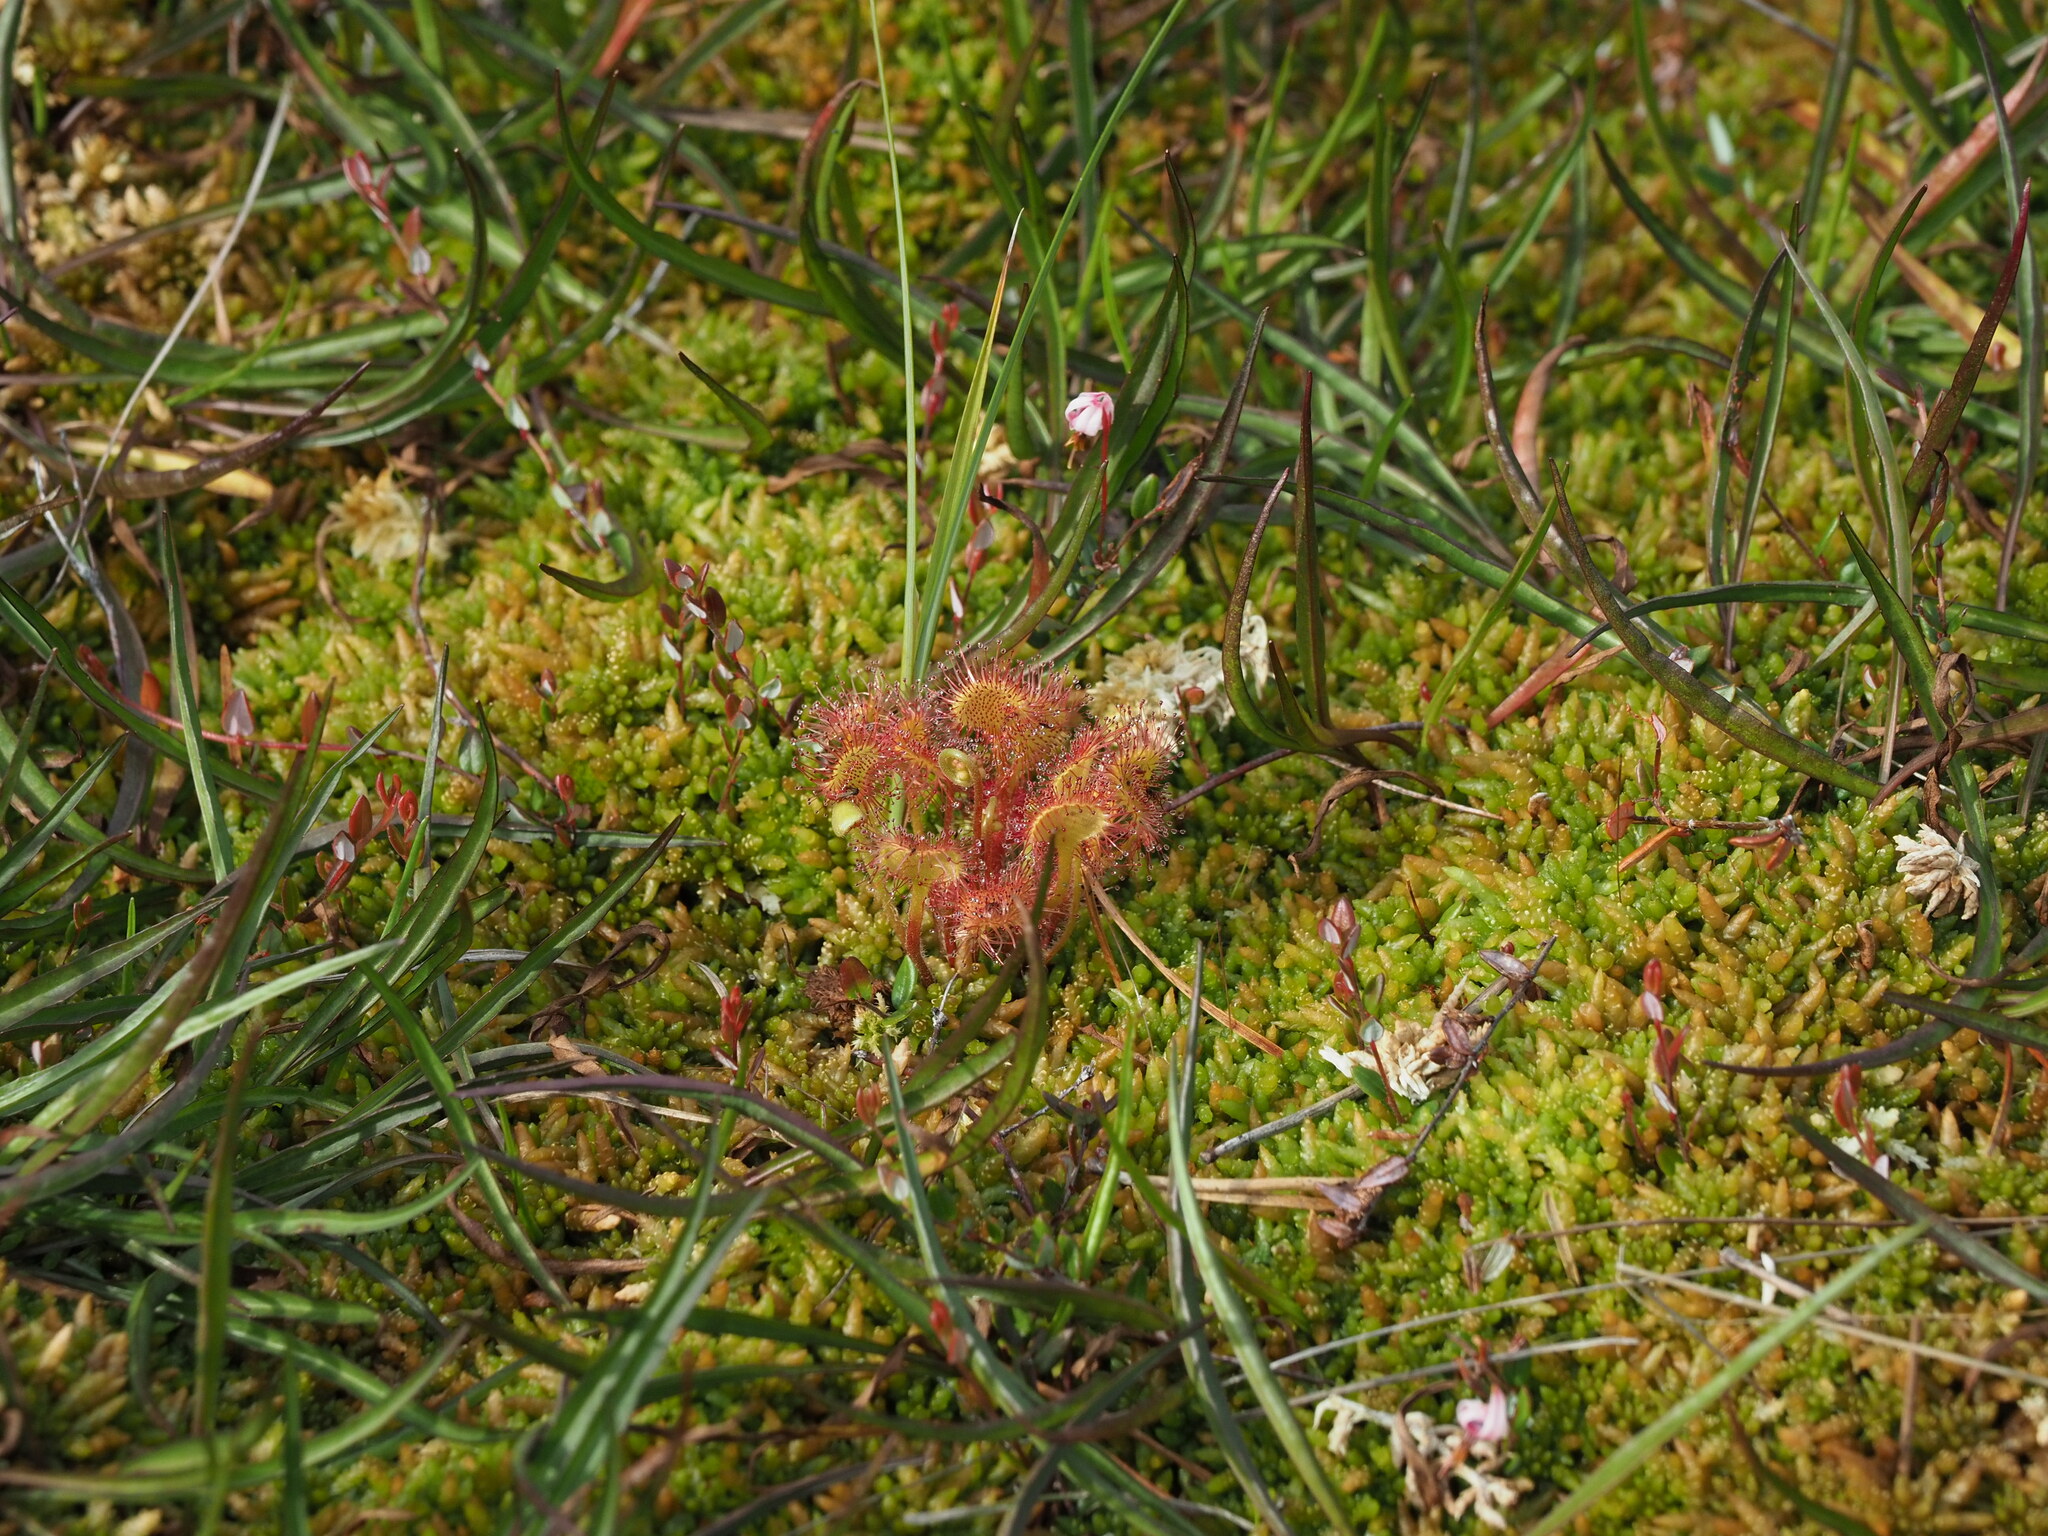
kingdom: Plantae
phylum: Tracheophyta
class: Magnoliopsida
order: Caryophyllales
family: Droseraceae
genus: Drosera
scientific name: Drosera rotundifolia
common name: Round-leaved sundew
